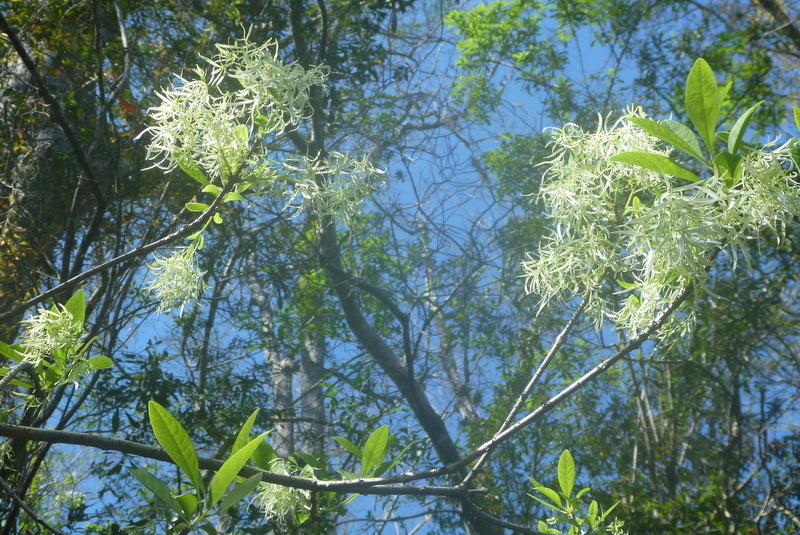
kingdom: Plantae
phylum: Tracheophyta
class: Magnoliopsida
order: Lamiales
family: Oleaceae
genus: Chionanthus
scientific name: Chionanthus virginicus
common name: American fringetree
